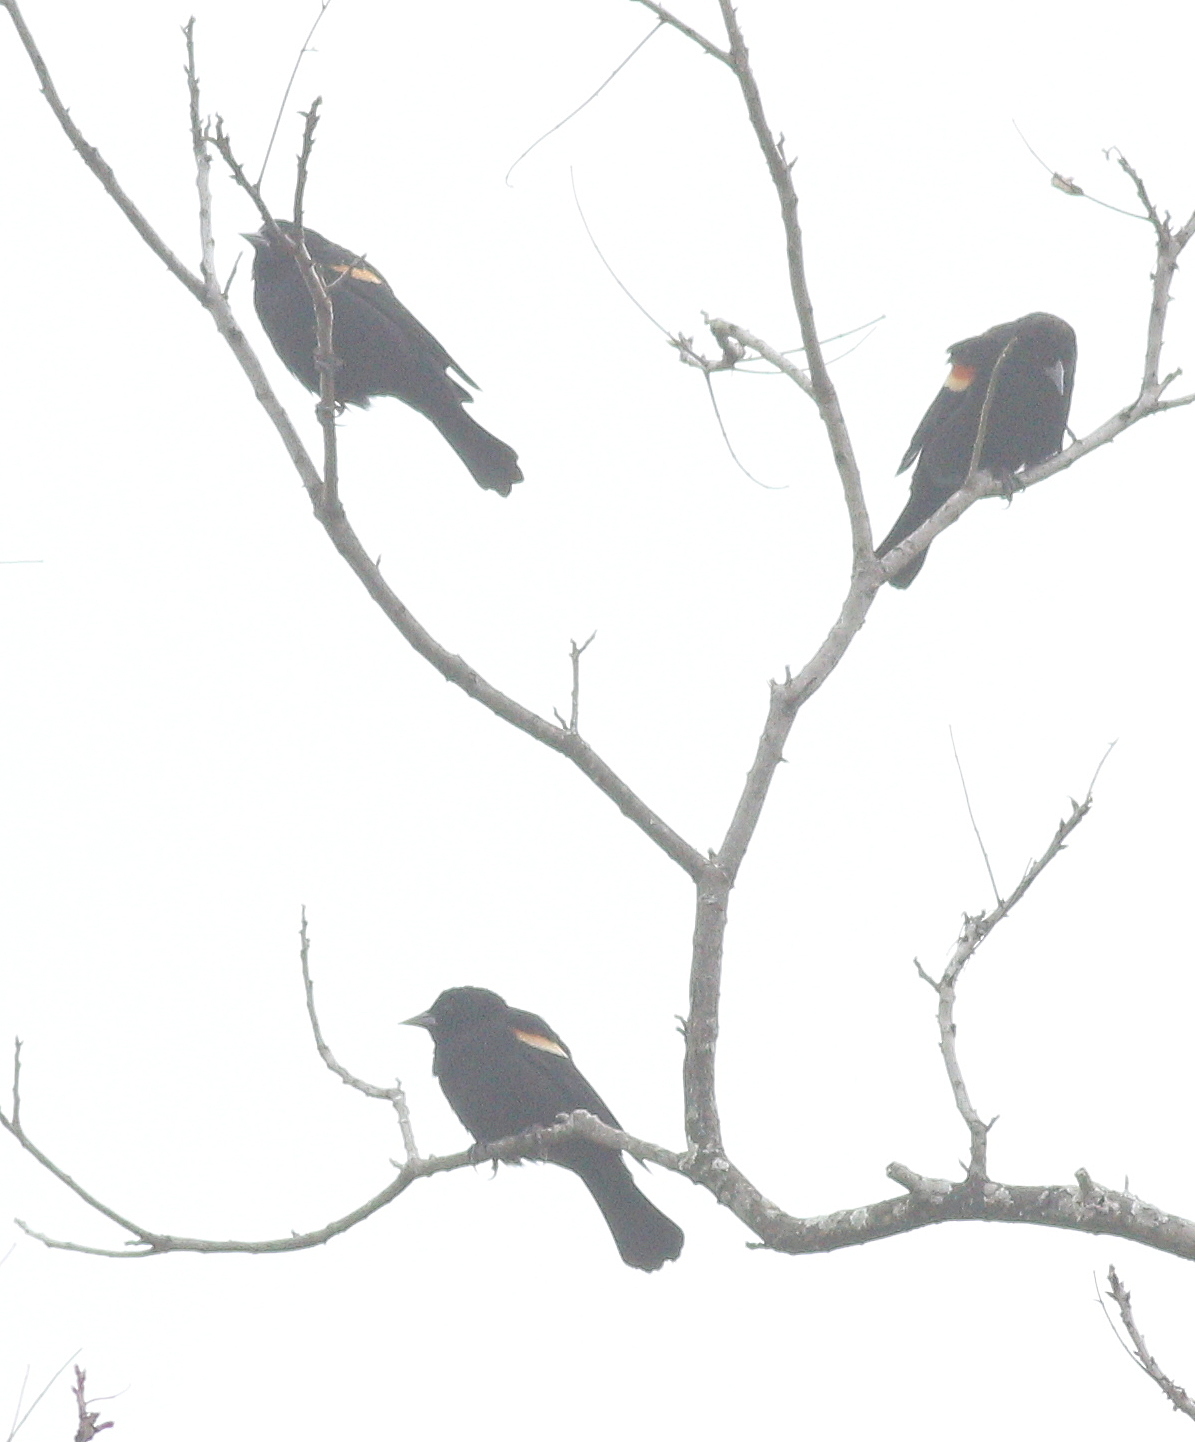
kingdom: Animalia
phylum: Chordata
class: Aves
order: Passeriformes
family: Icteridae
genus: Agelaius
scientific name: Agelaius phoeniceus
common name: Red-winged blackbird
